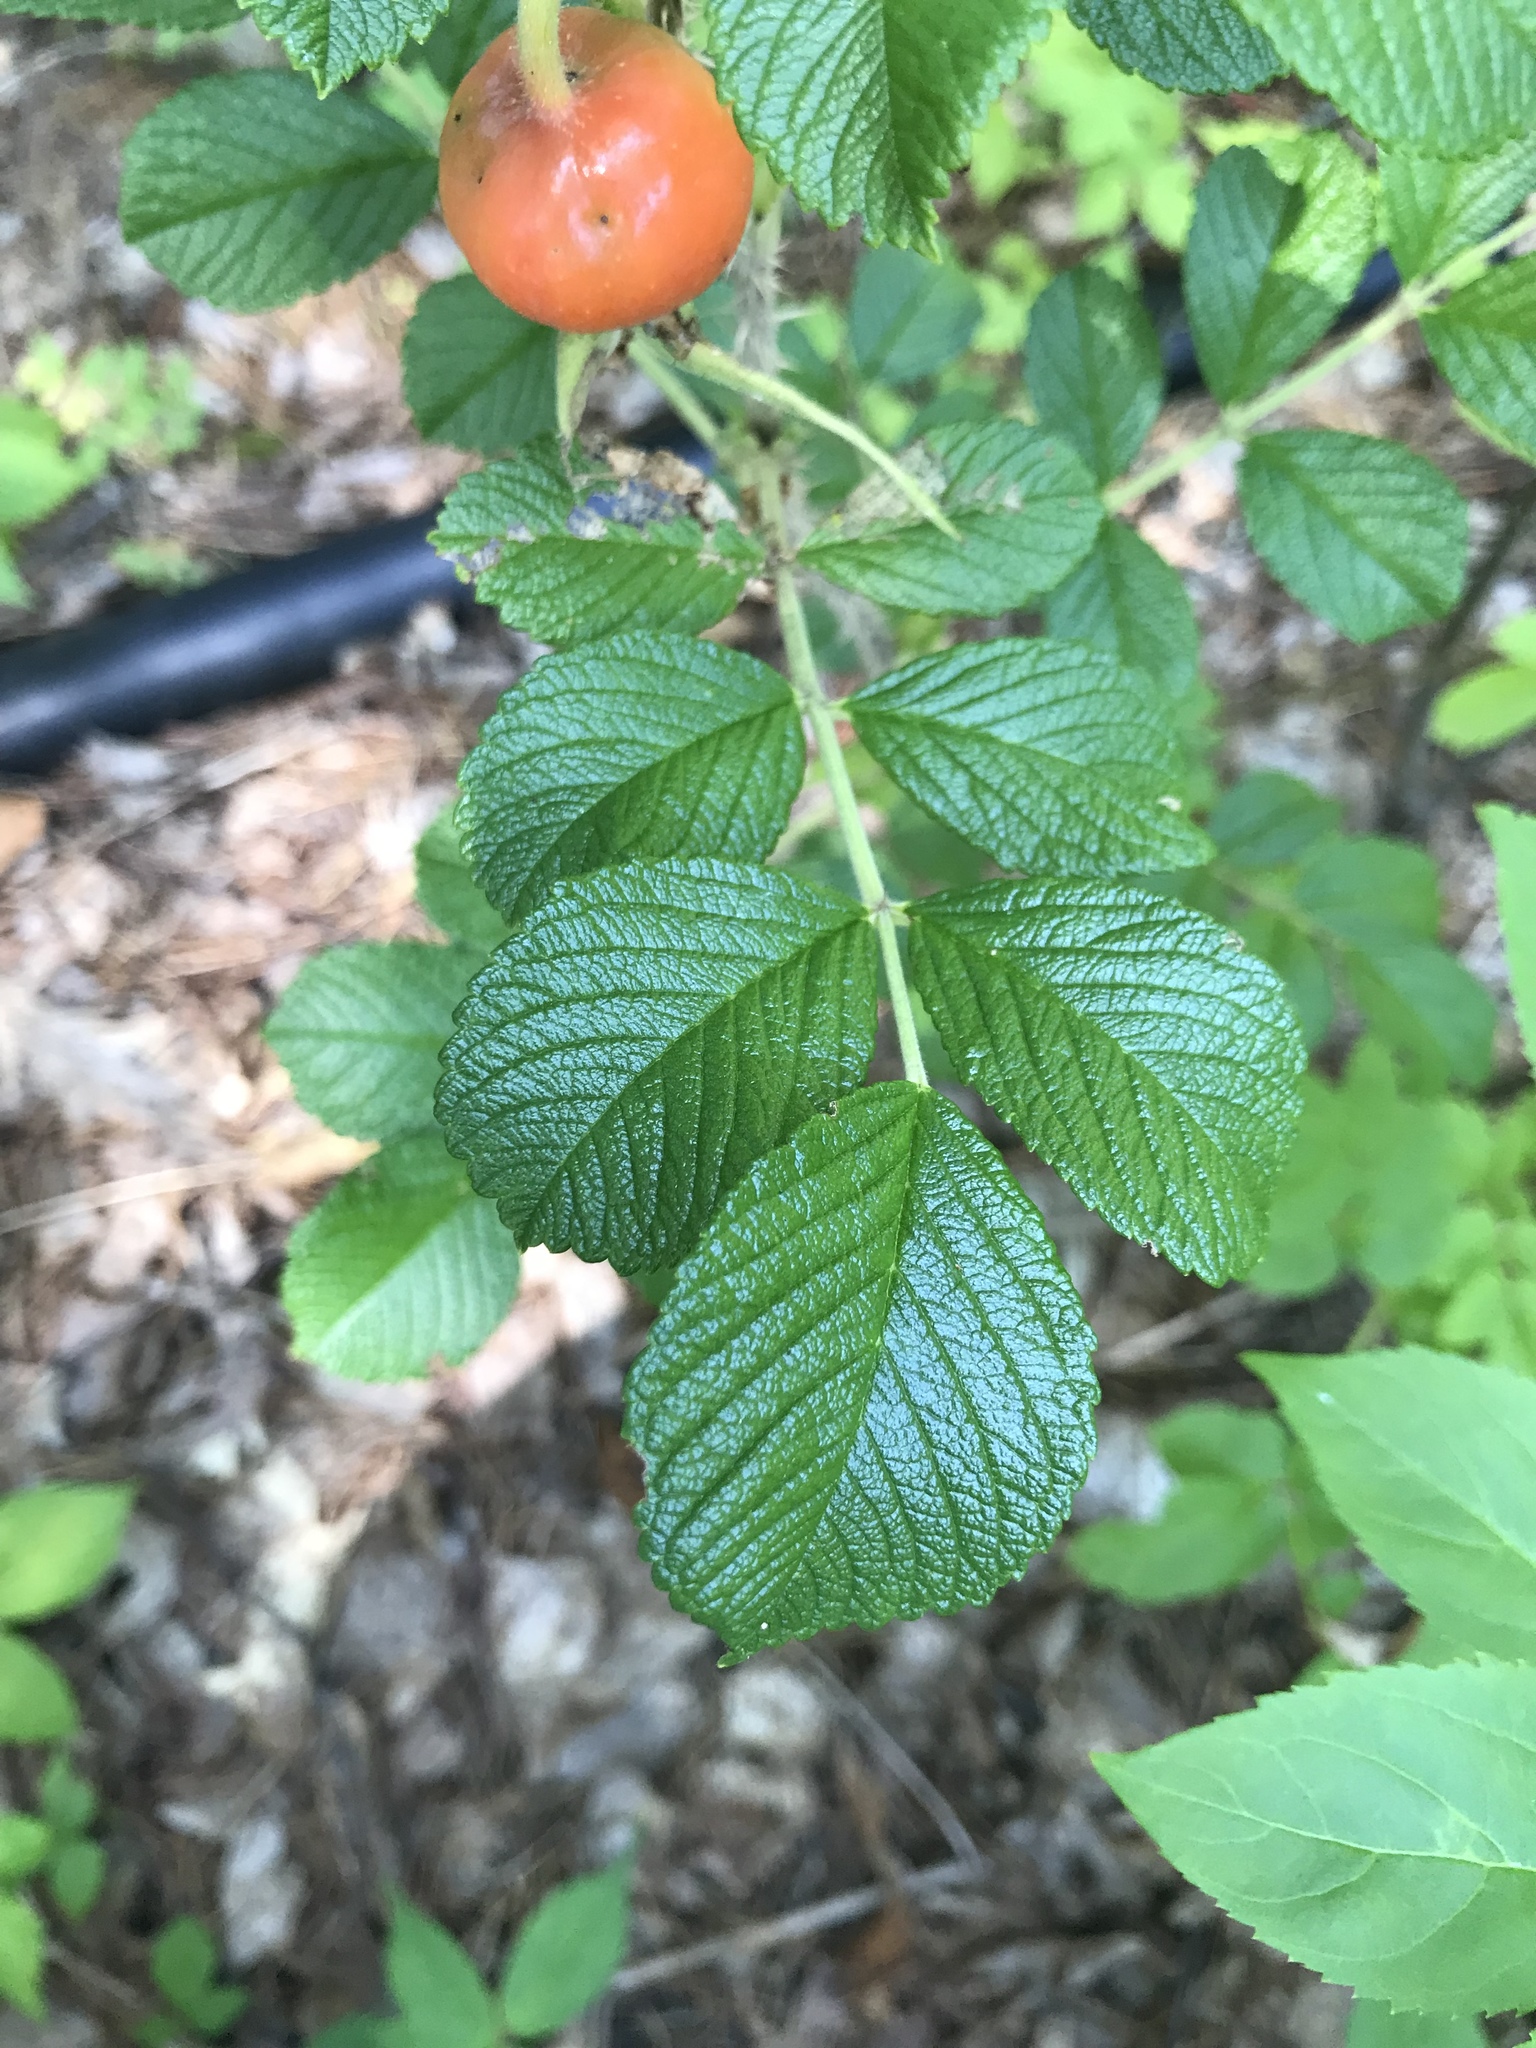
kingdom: Plantae
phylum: Tracheophyta
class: Magnoliopsida
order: Rosales
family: Rosaceae
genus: Rosa
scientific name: Rosa rugosa
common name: Japanese rose
